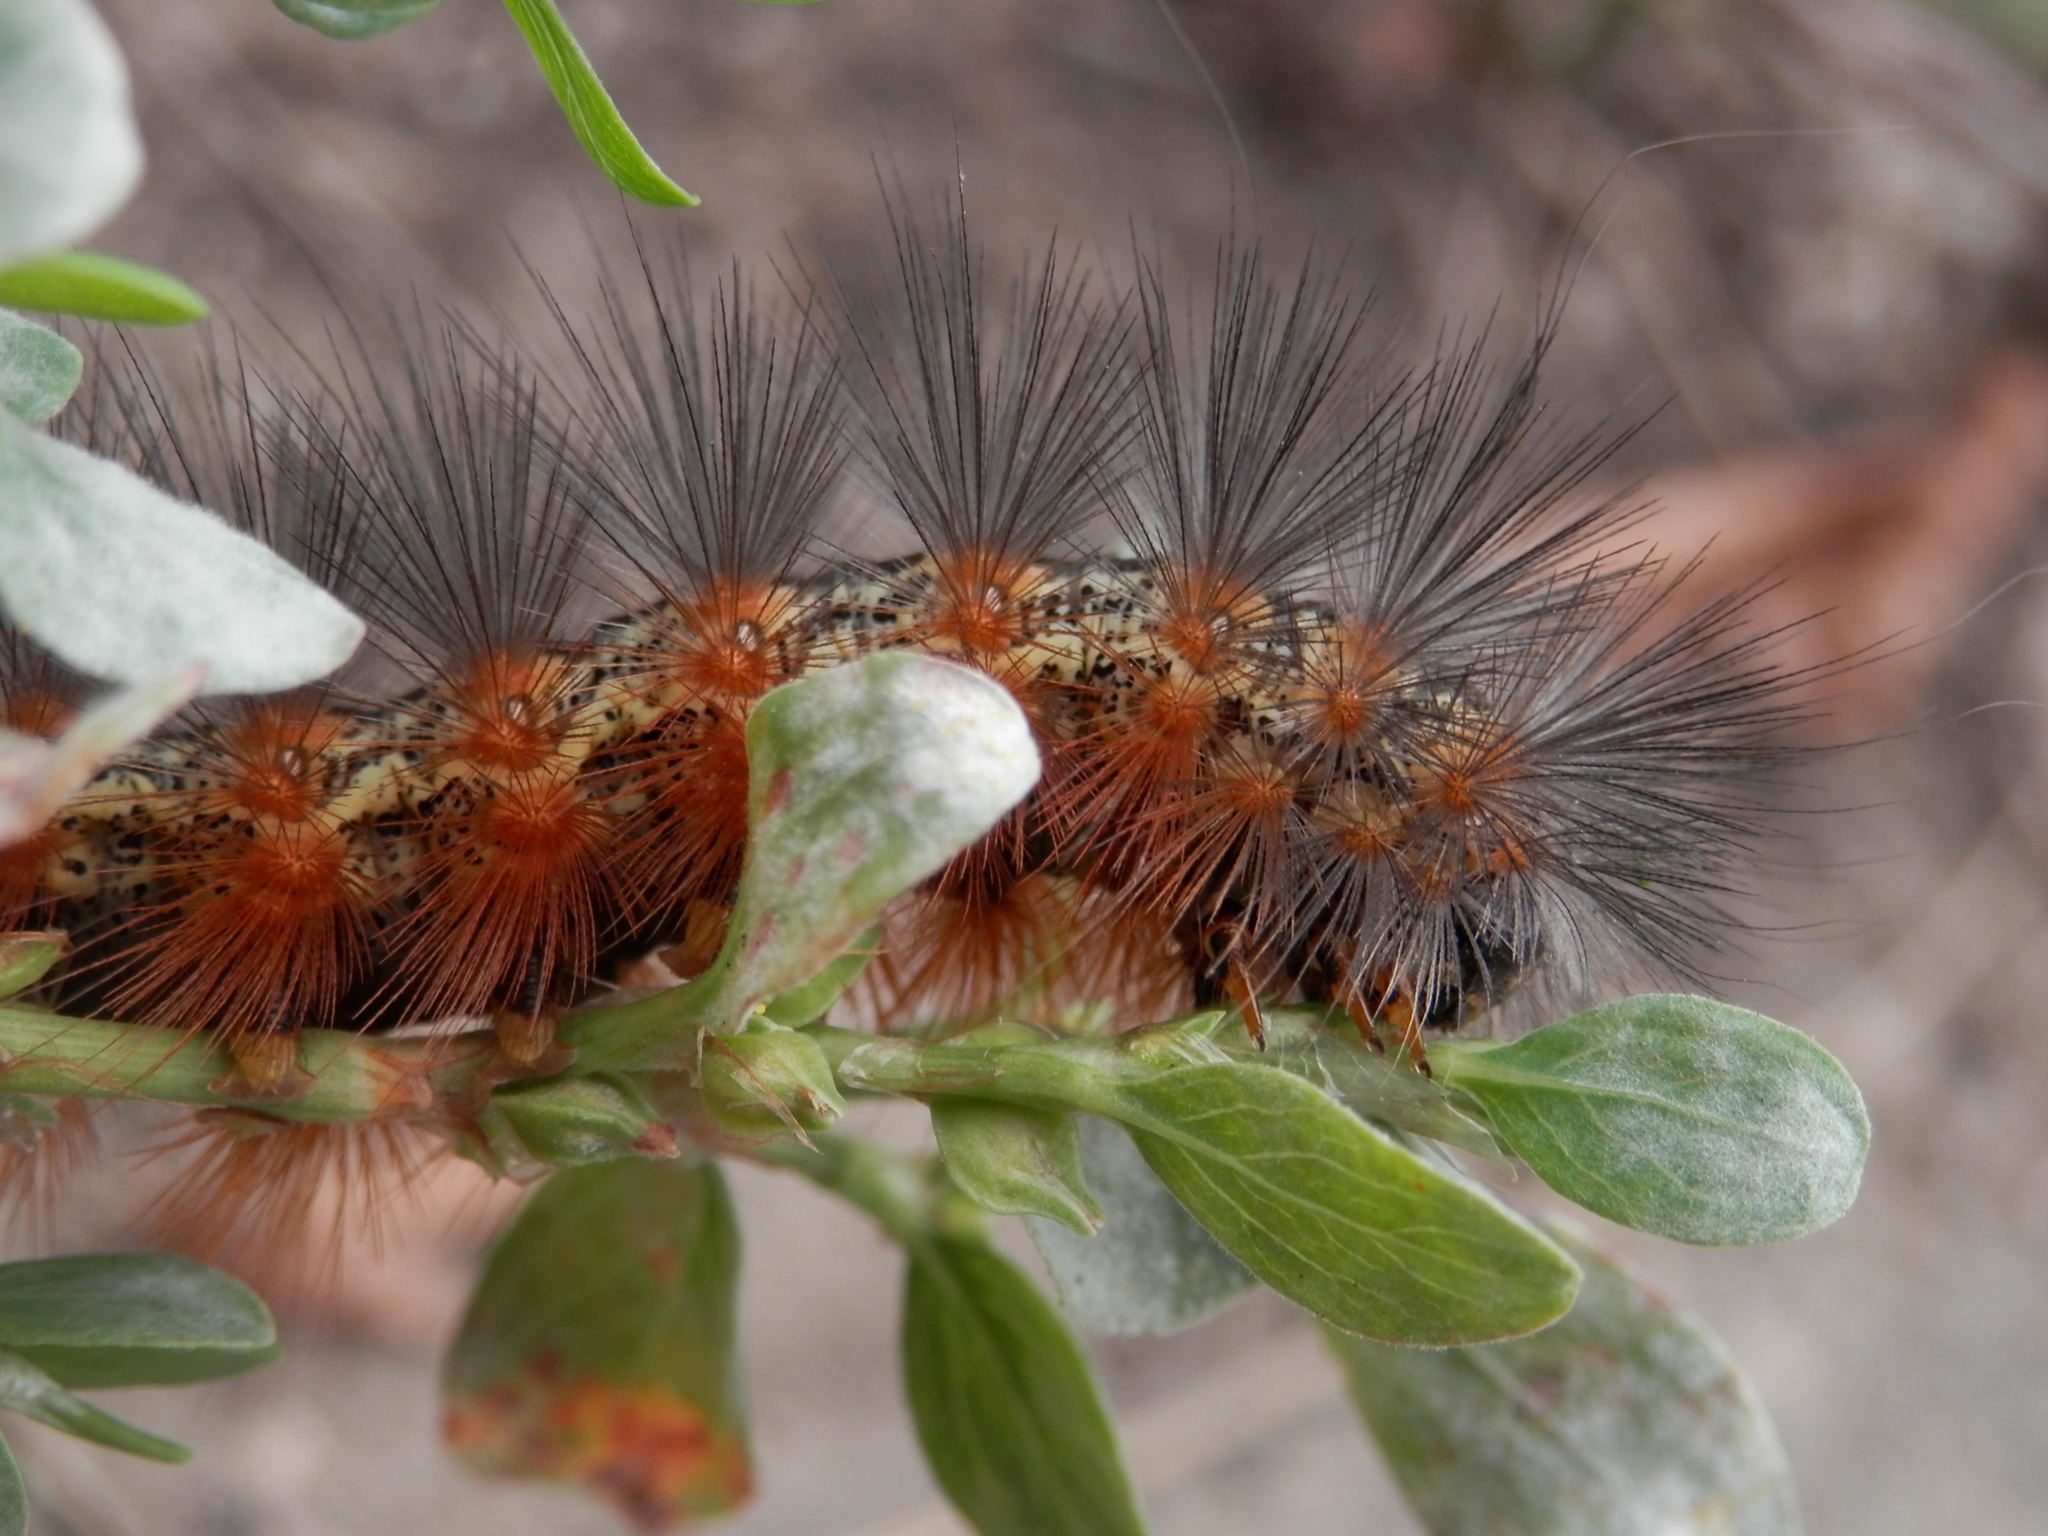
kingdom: Animalia
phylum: Arthropoda
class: Insecta
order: Lepidoptera
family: Erebidae
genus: Estigmene
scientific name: Estigmene acrea
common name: Salt marsh moth
